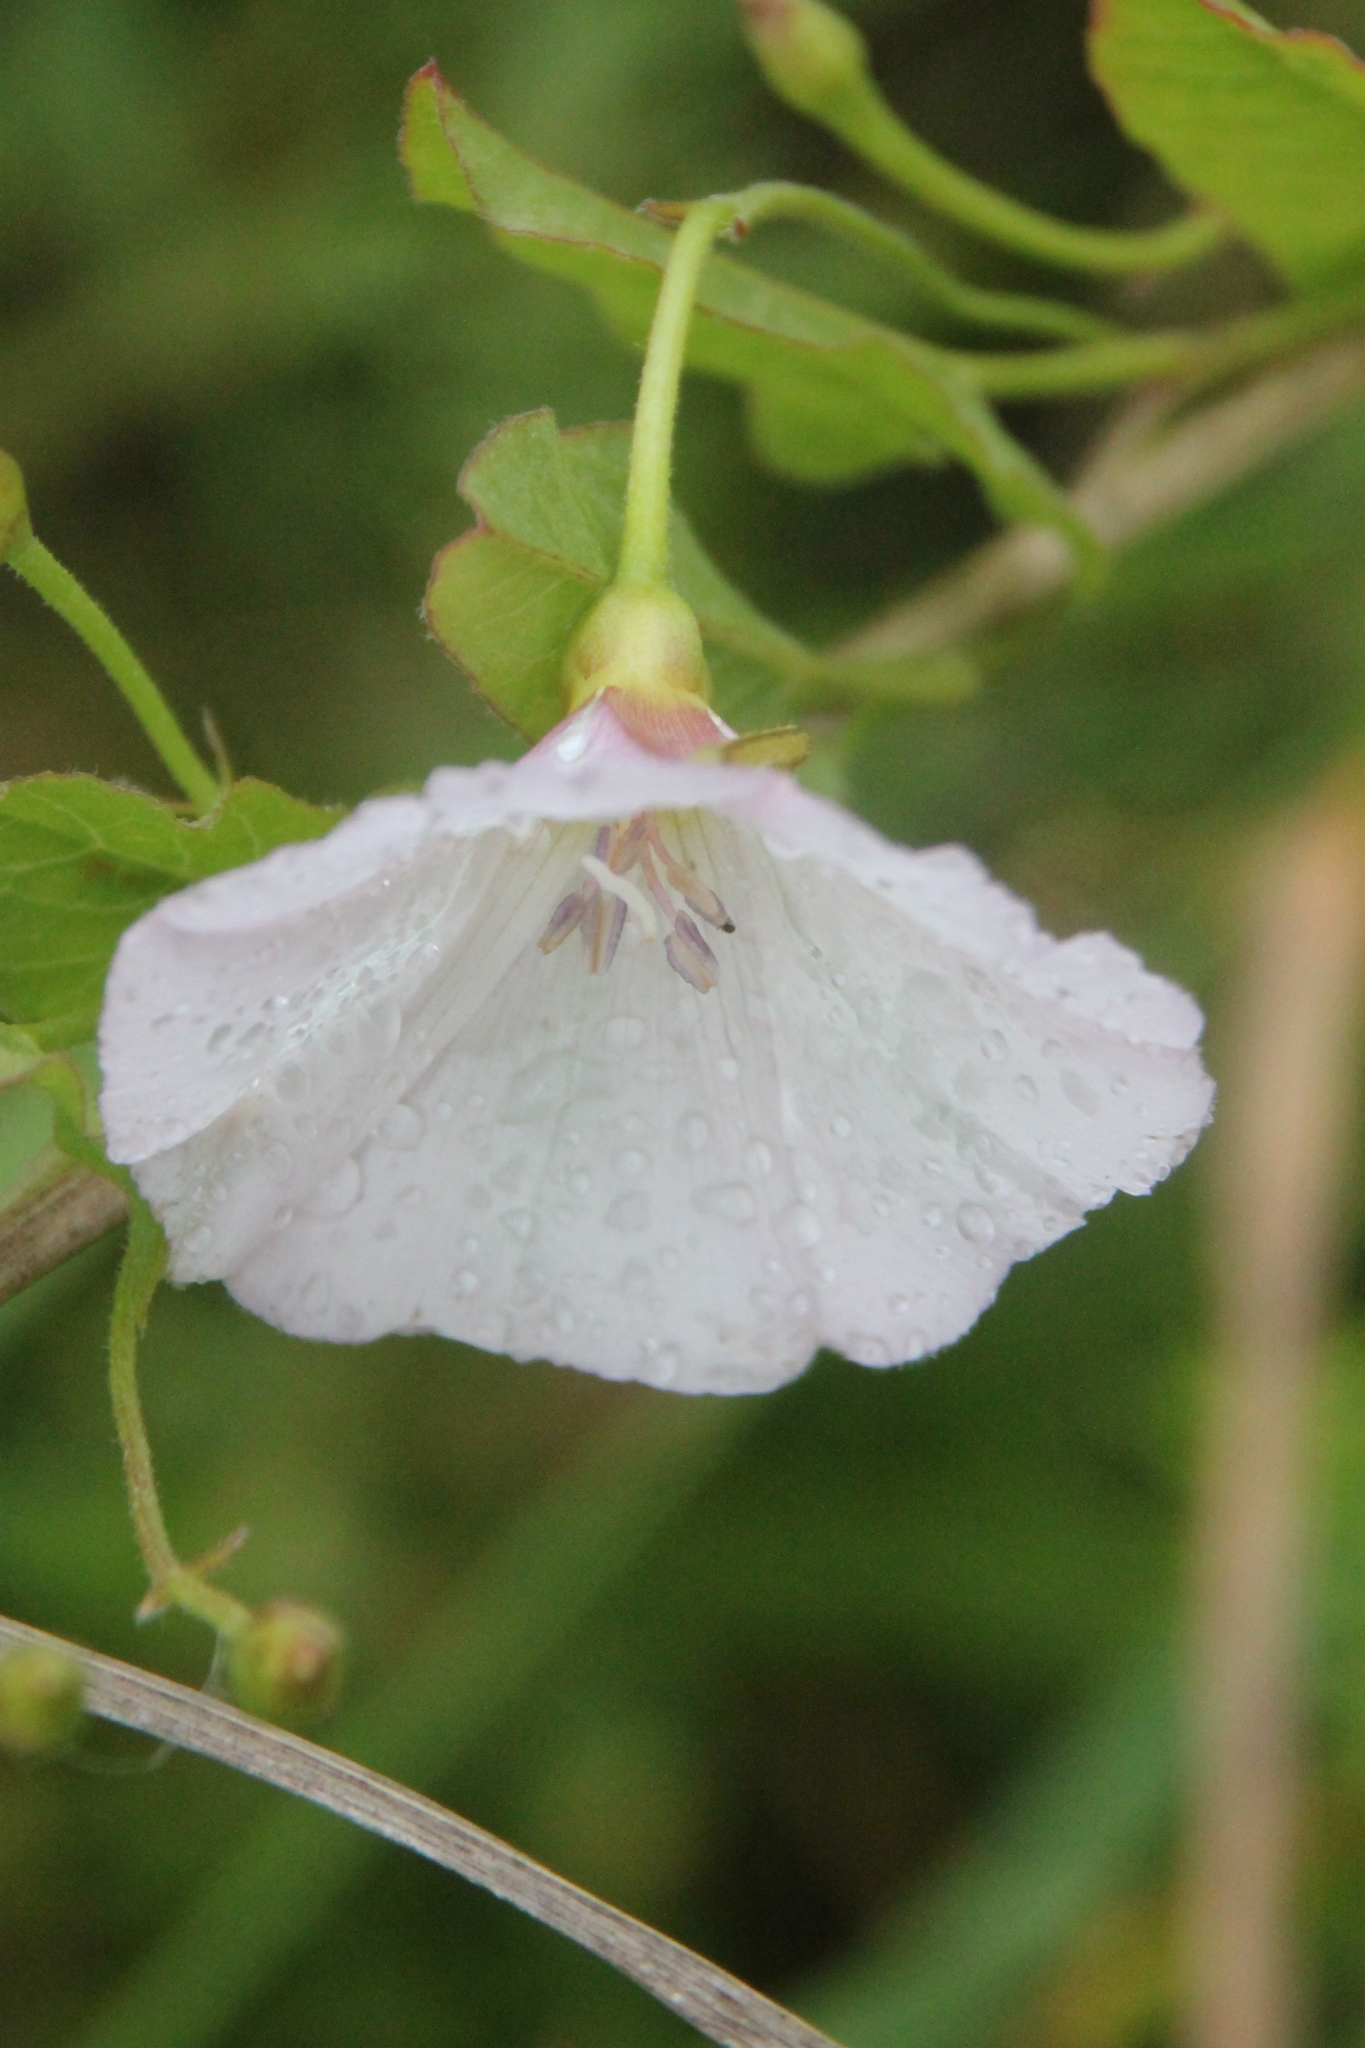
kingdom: Plantae
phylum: Tracheophyta
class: Magnoliopsida
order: Solanales
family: Convolvulaceae
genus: Convolvulus
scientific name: Convolvulus arvensis
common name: Field bindweed
